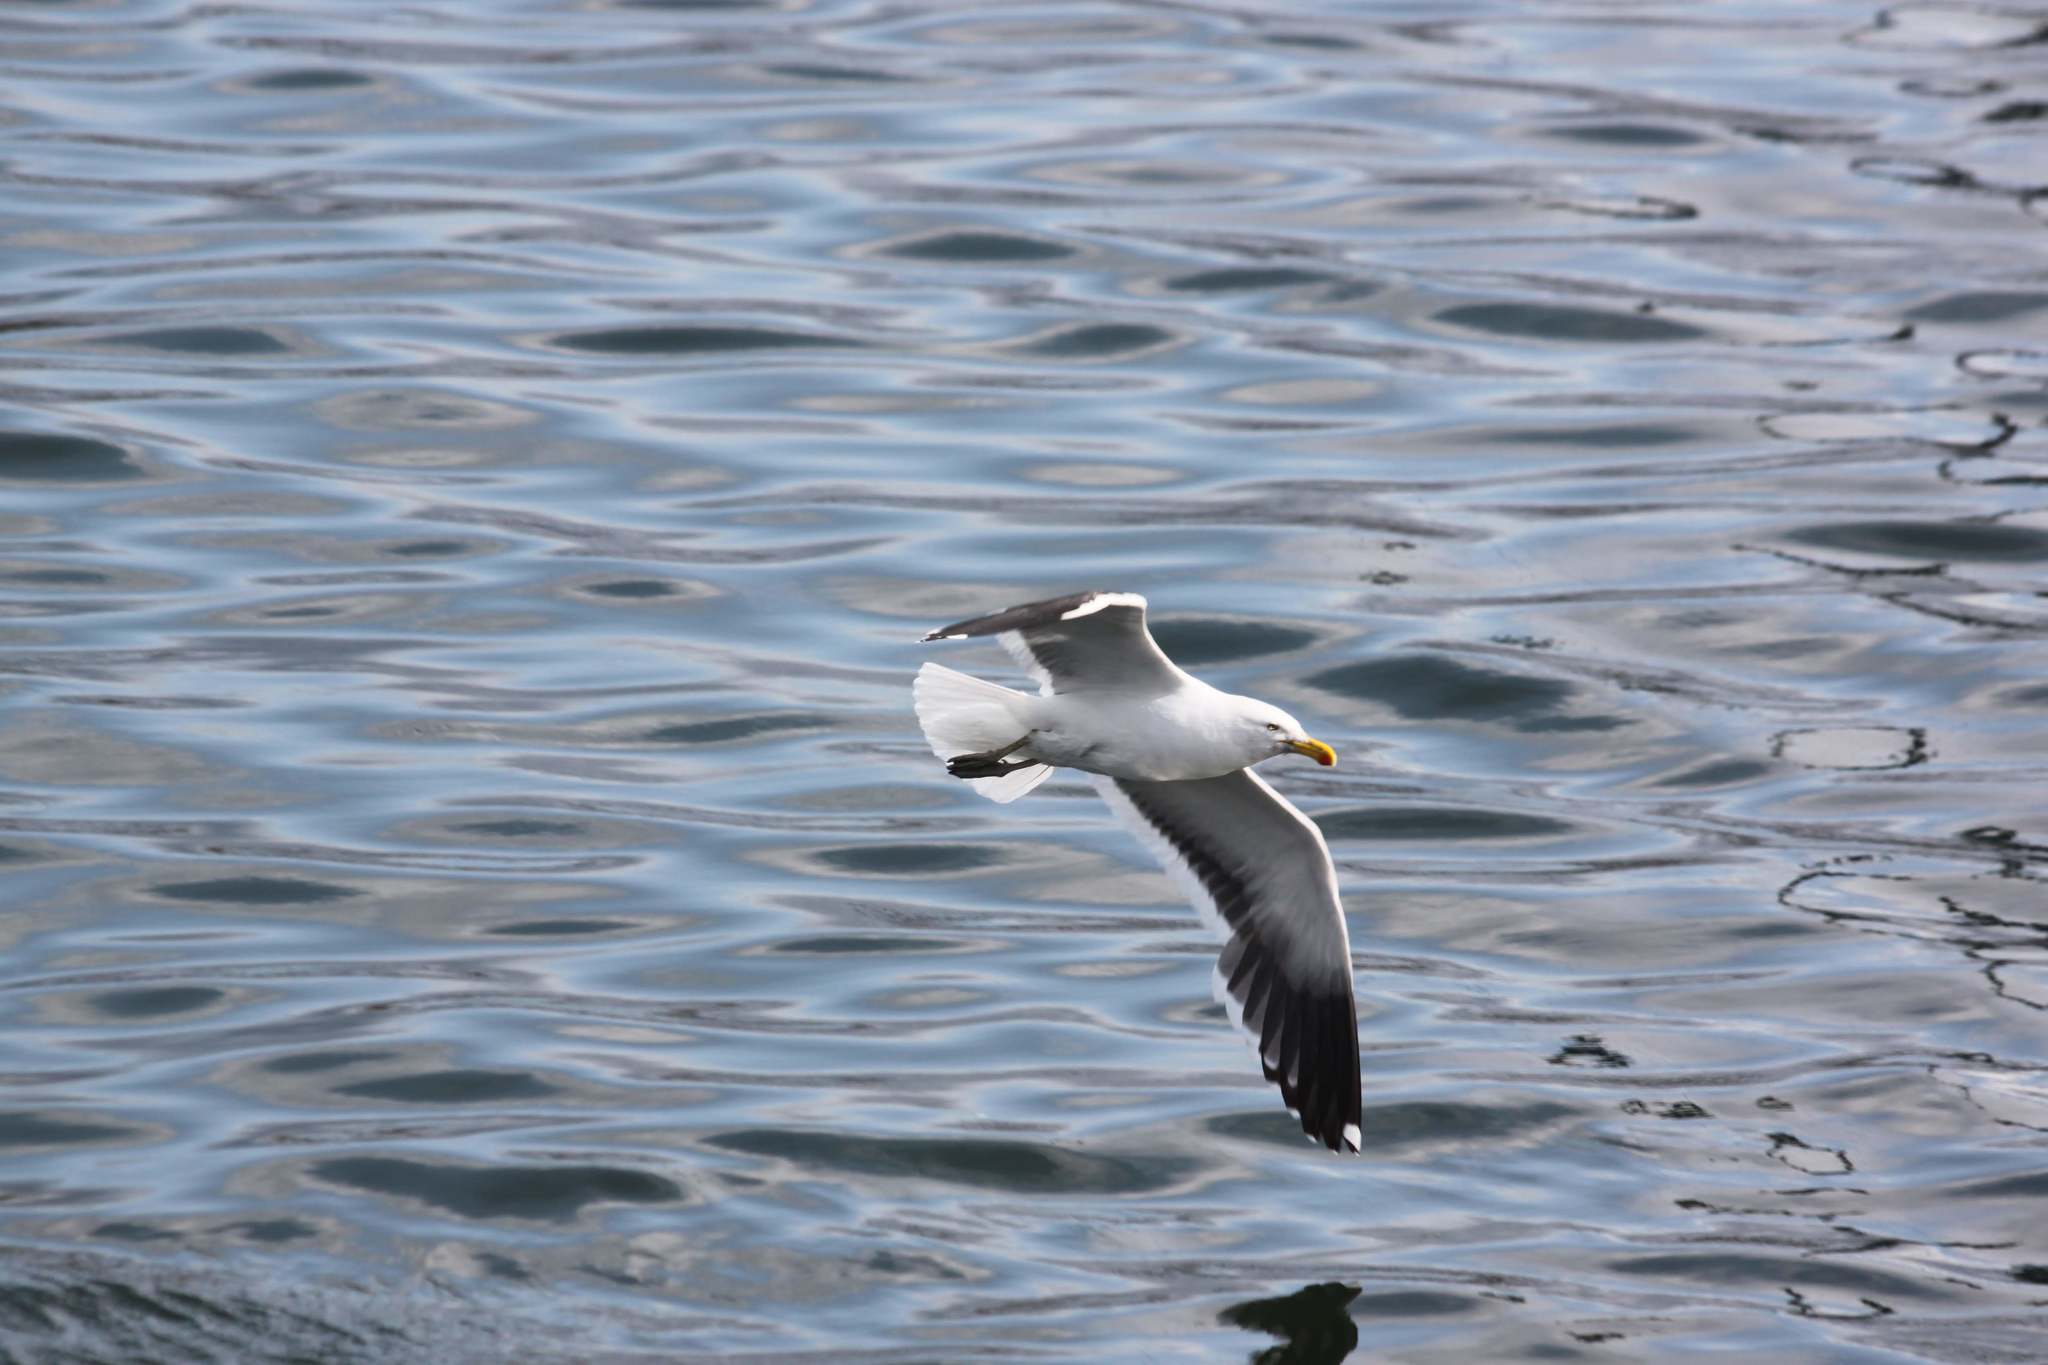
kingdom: Animalia
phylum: Chordata
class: Aves
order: Charadriiformes
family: Laridae
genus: Larus
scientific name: Larus dominicanus
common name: Kelp gull
